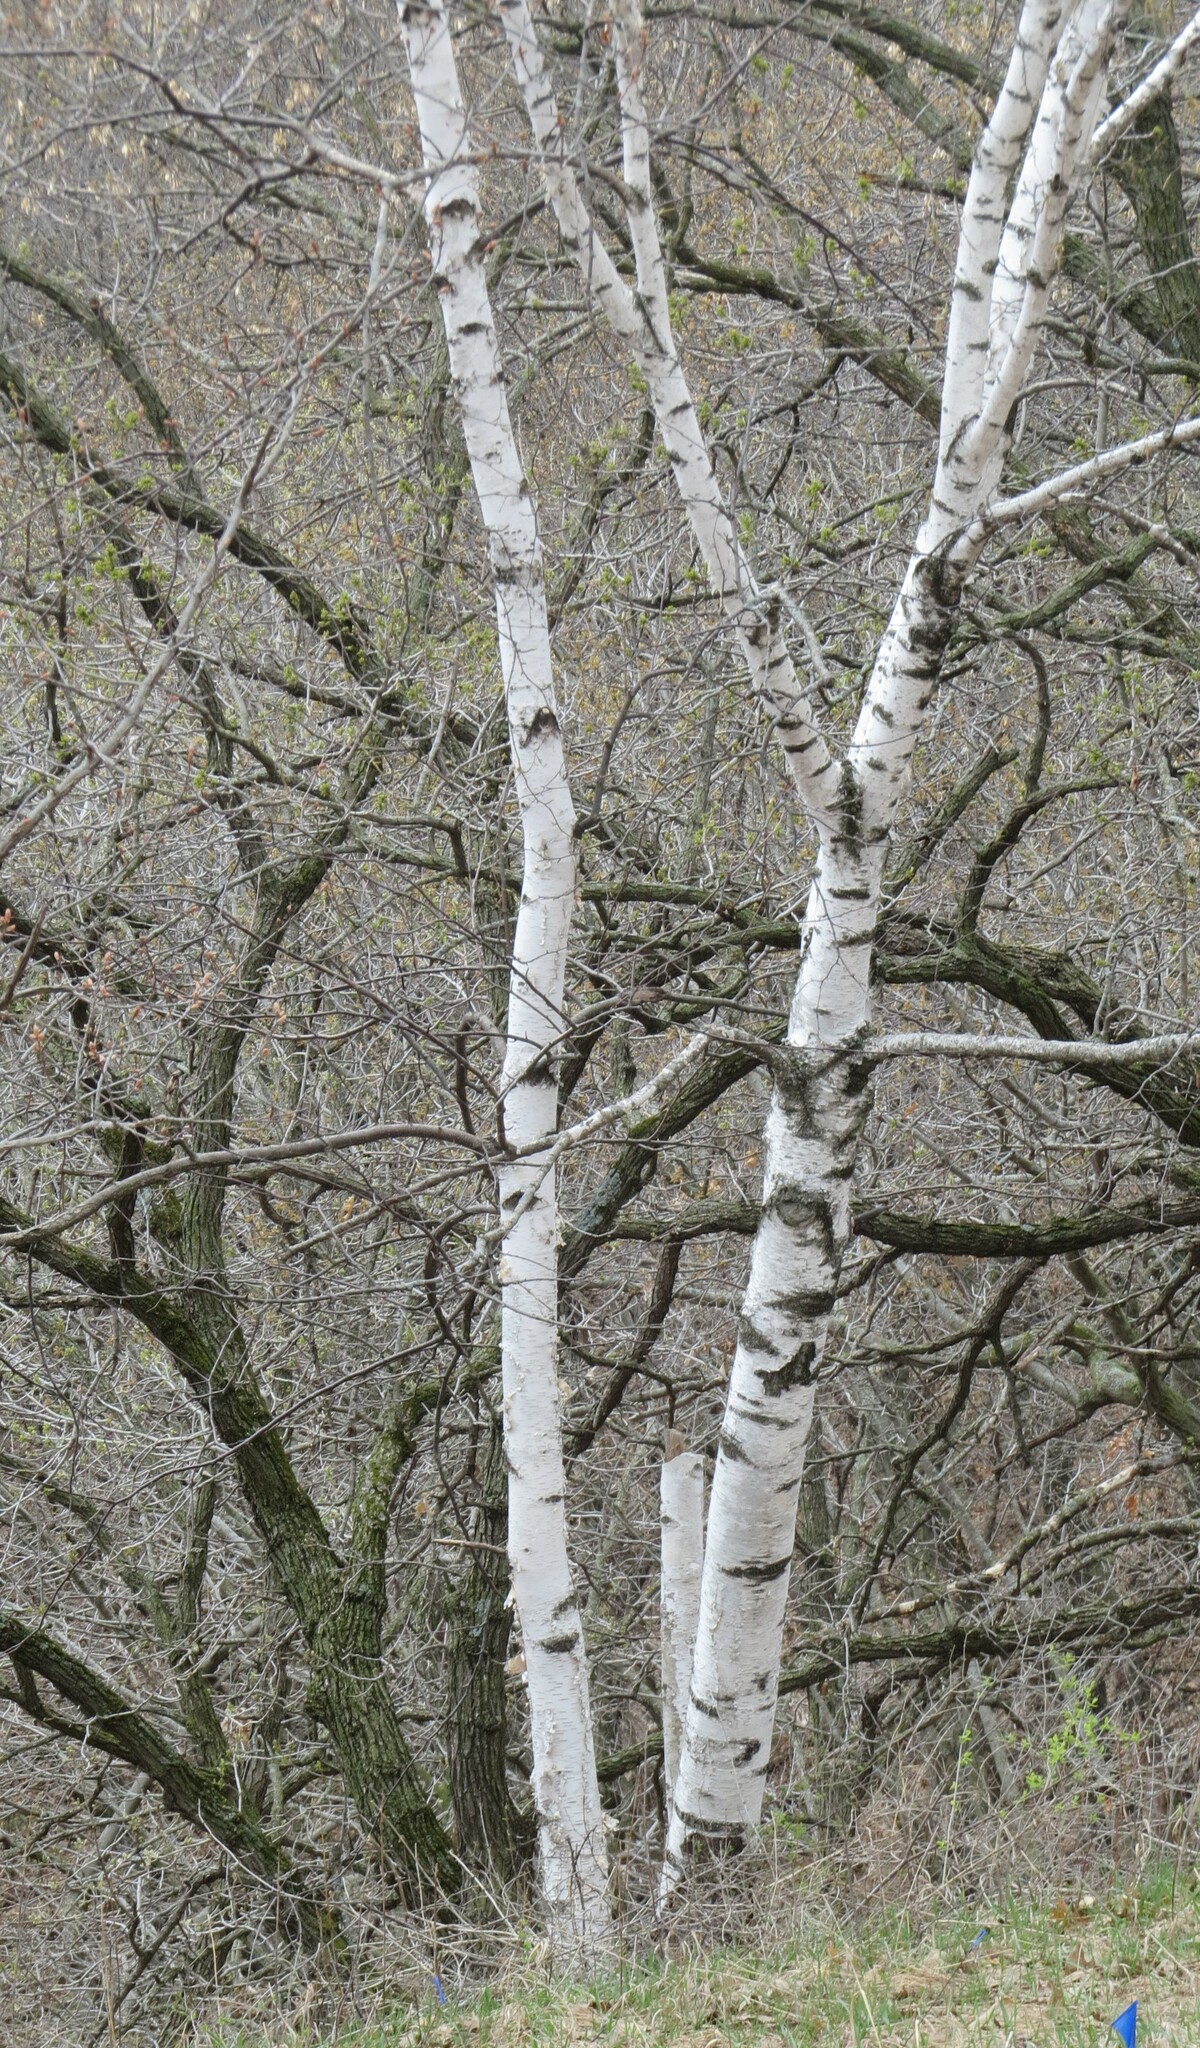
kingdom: Plantae
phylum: Tracheophyta
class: Magnoliopsida
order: Fagales
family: Betulaceae
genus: Betula
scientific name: Betula papyrifera
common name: Paper birch
